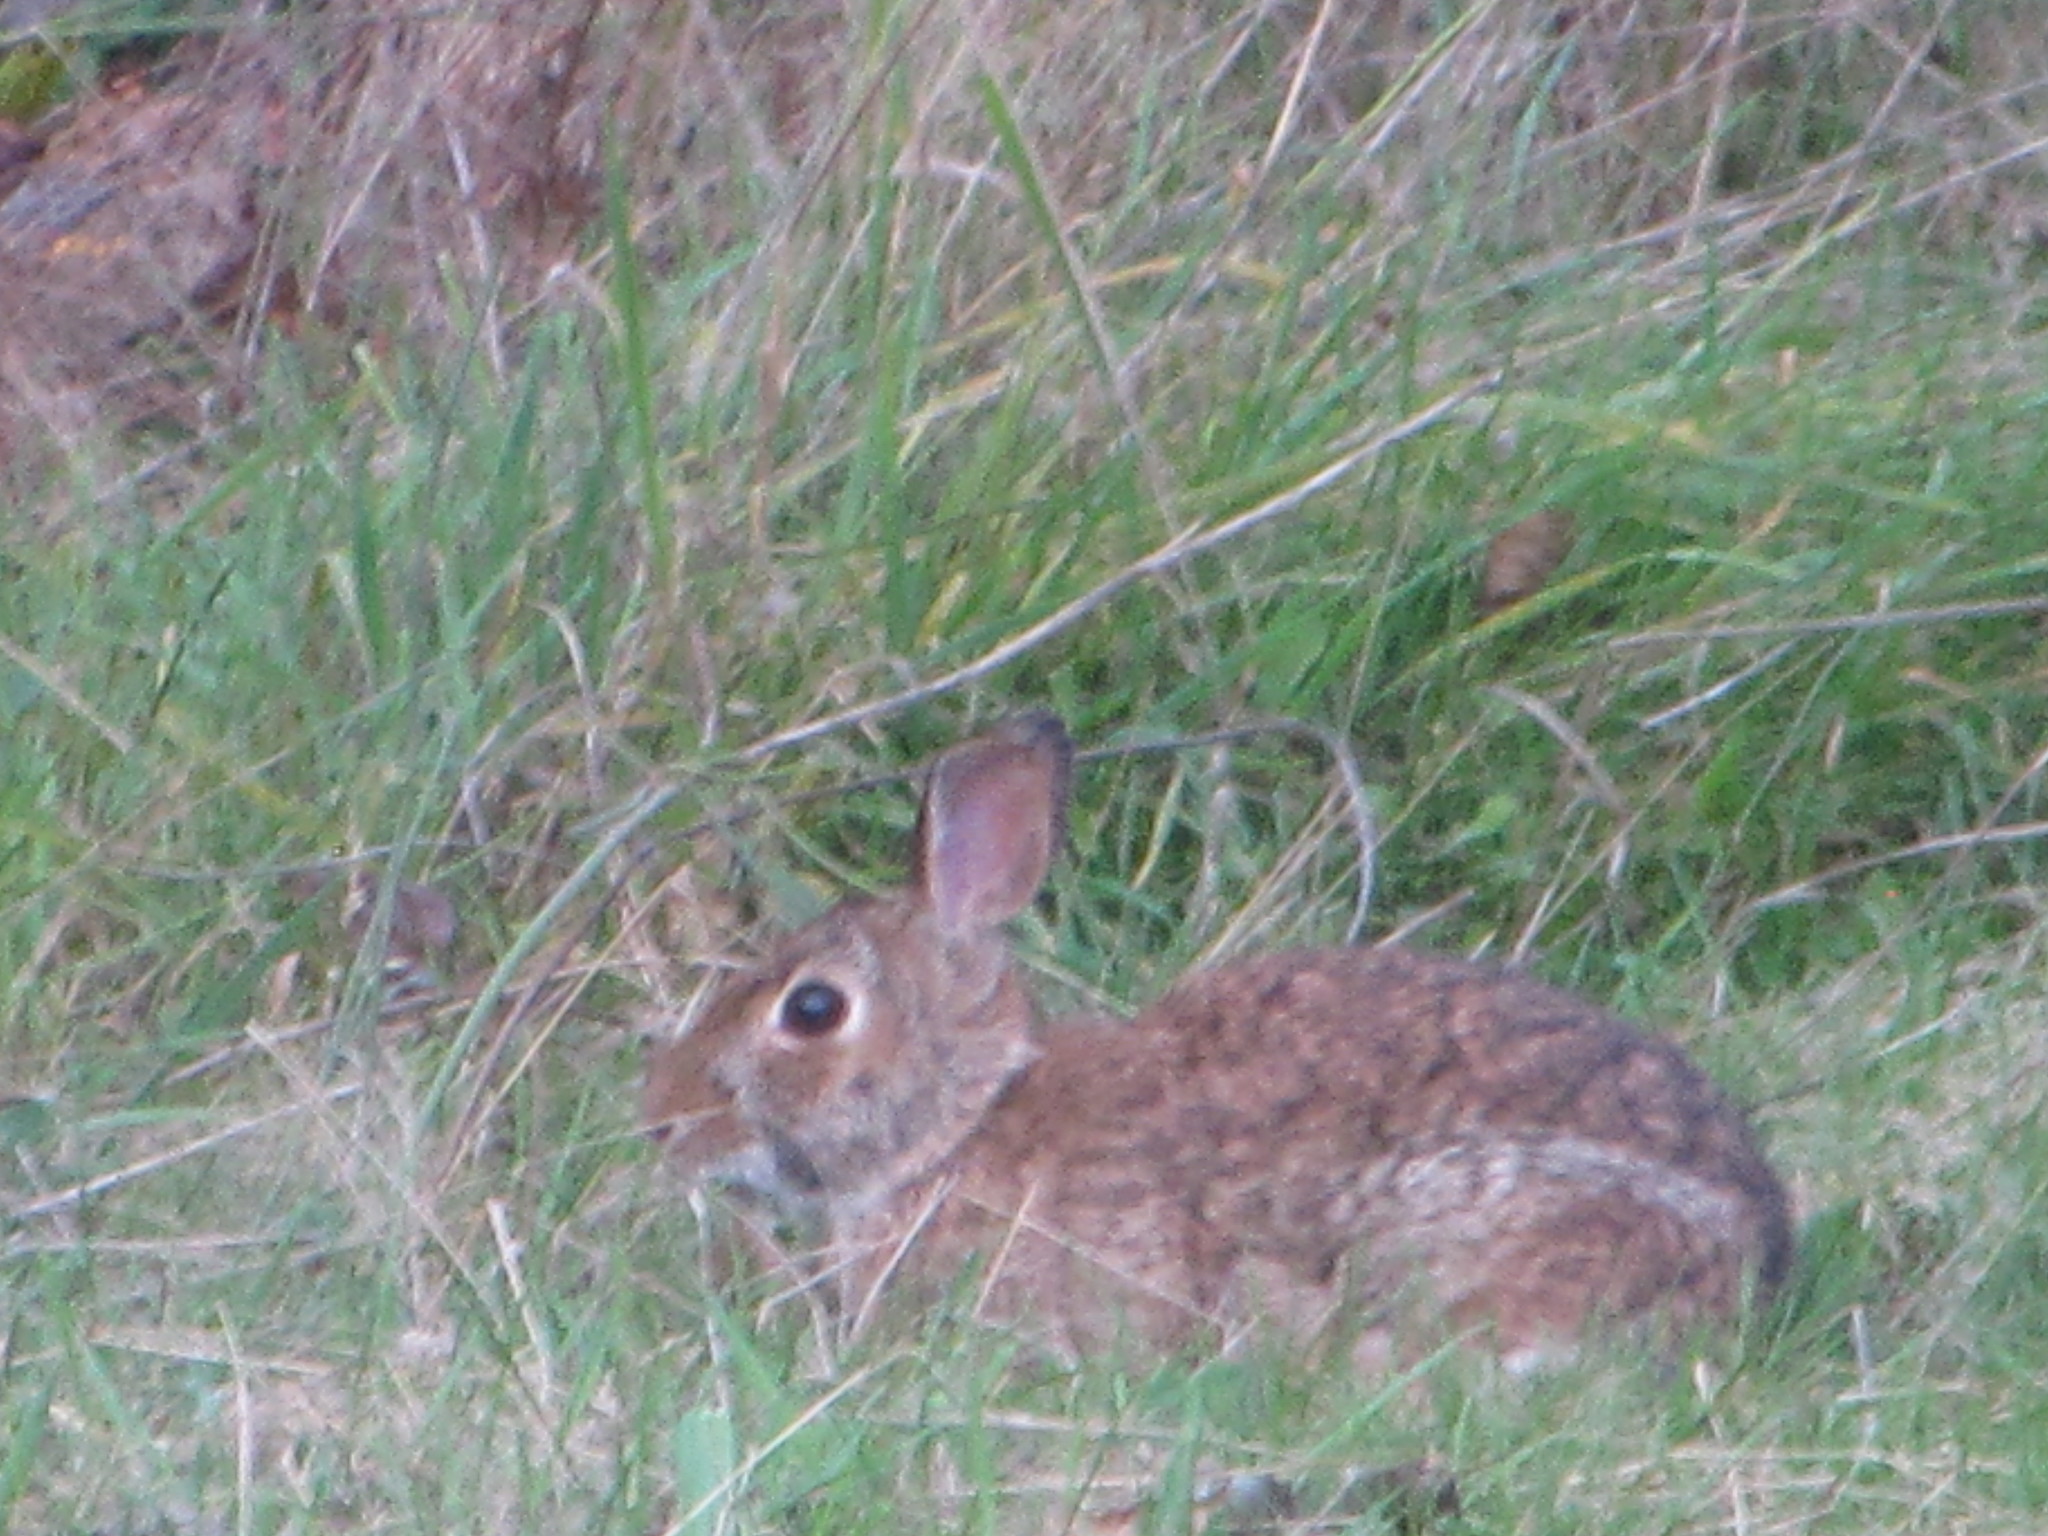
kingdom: Animalia
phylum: Chordata
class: Mammalia
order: Lagomorpha
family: Leporidae
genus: Sylvilagus
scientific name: Sylvilagus floridanus
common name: Eastern cottontail
